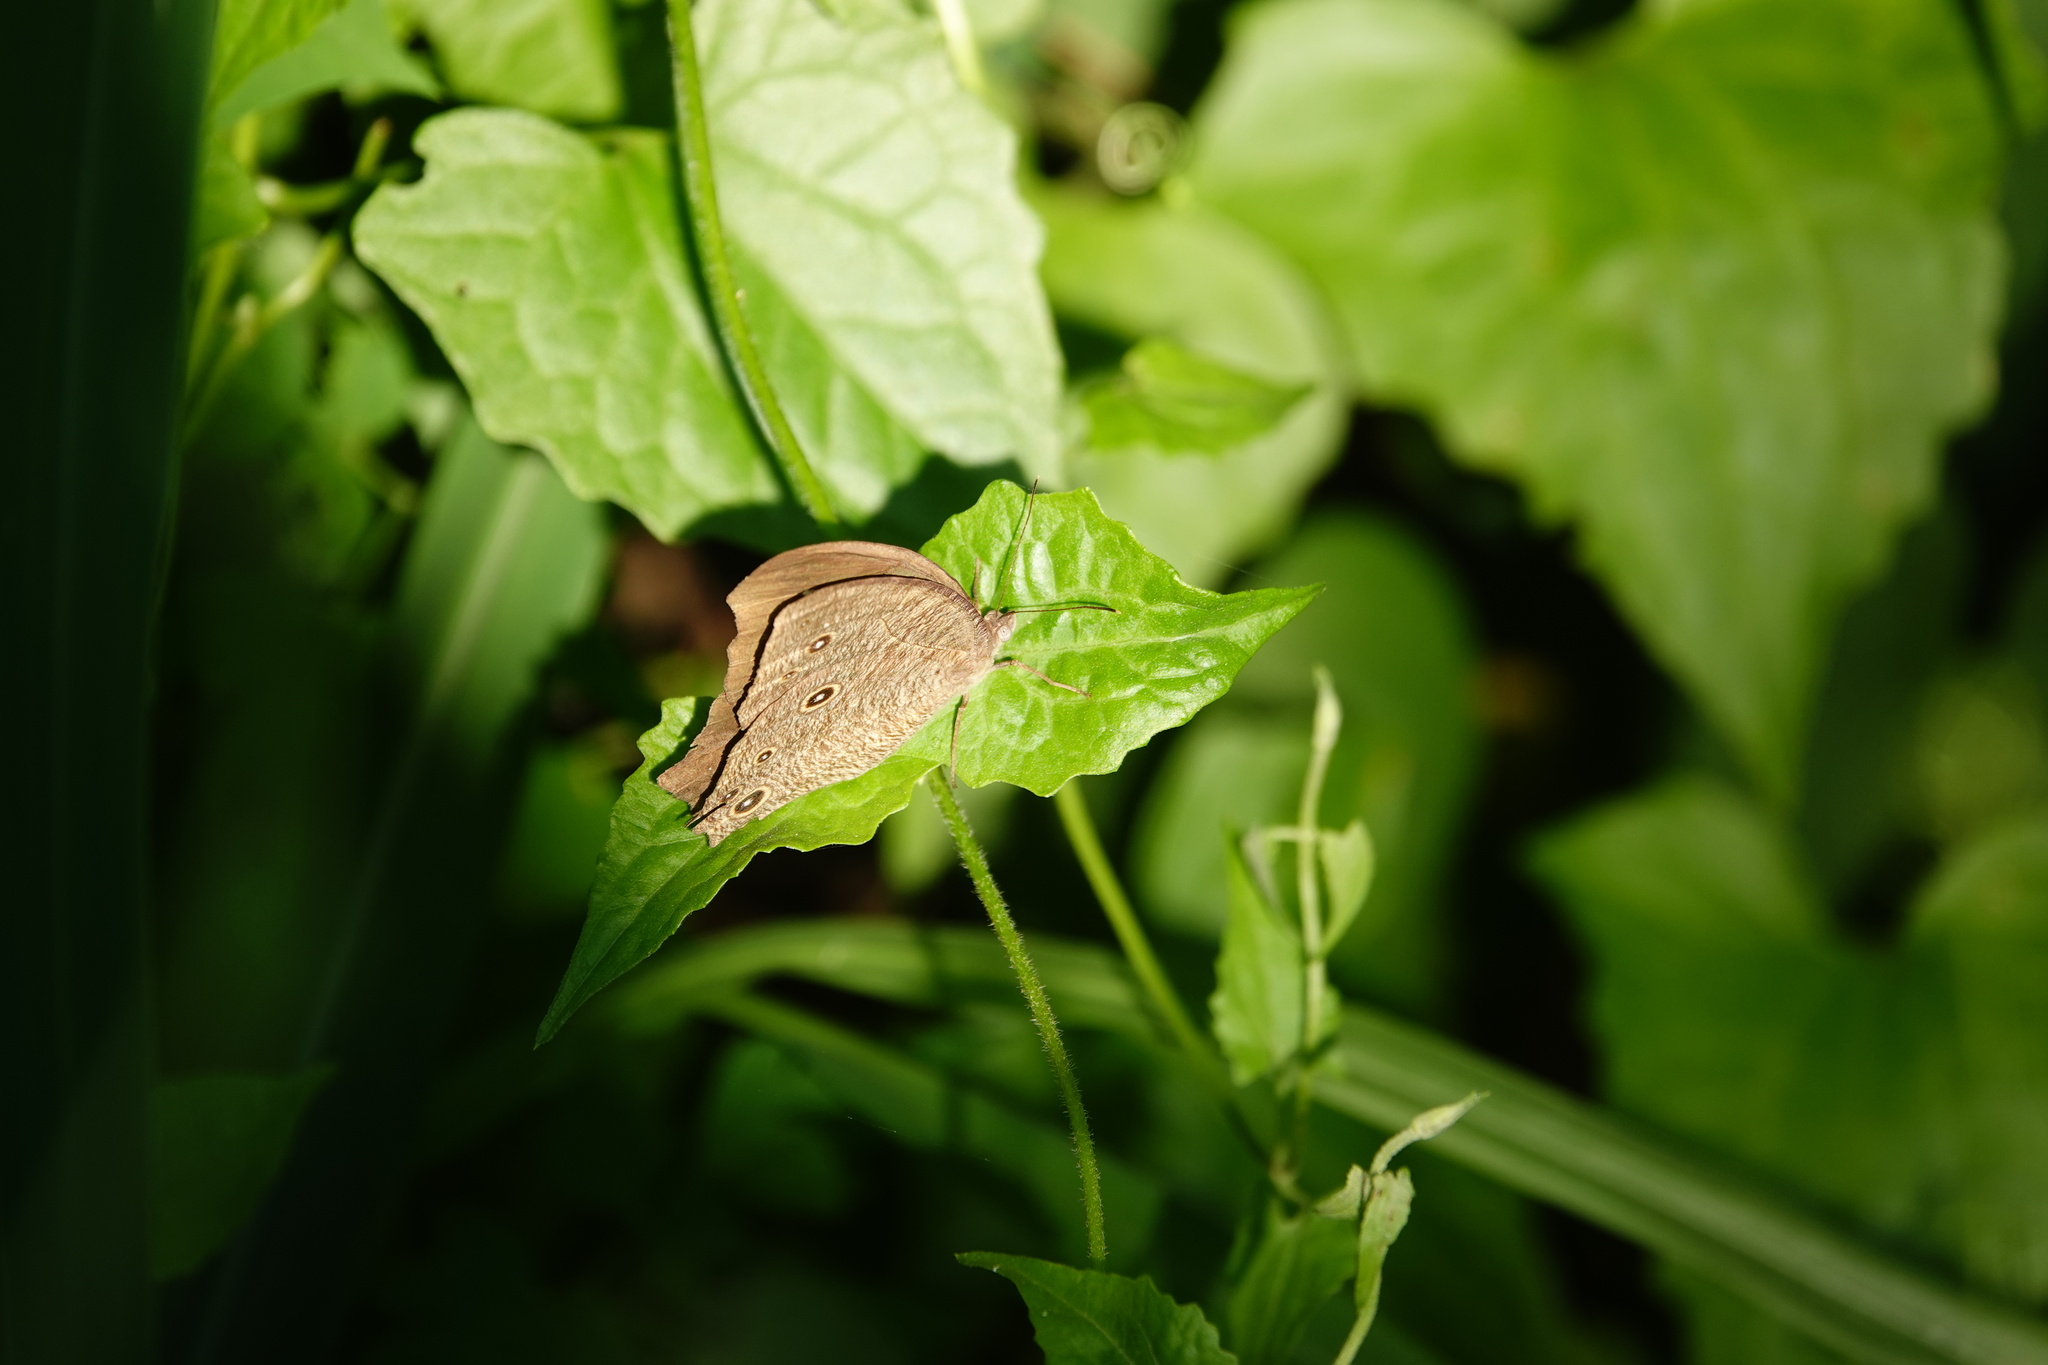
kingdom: Animalia
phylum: Arthropoda
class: Insecta
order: Lepidoptera
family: Nymphalidae
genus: Melanitis
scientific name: Melanitis leda
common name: Twilight brown
